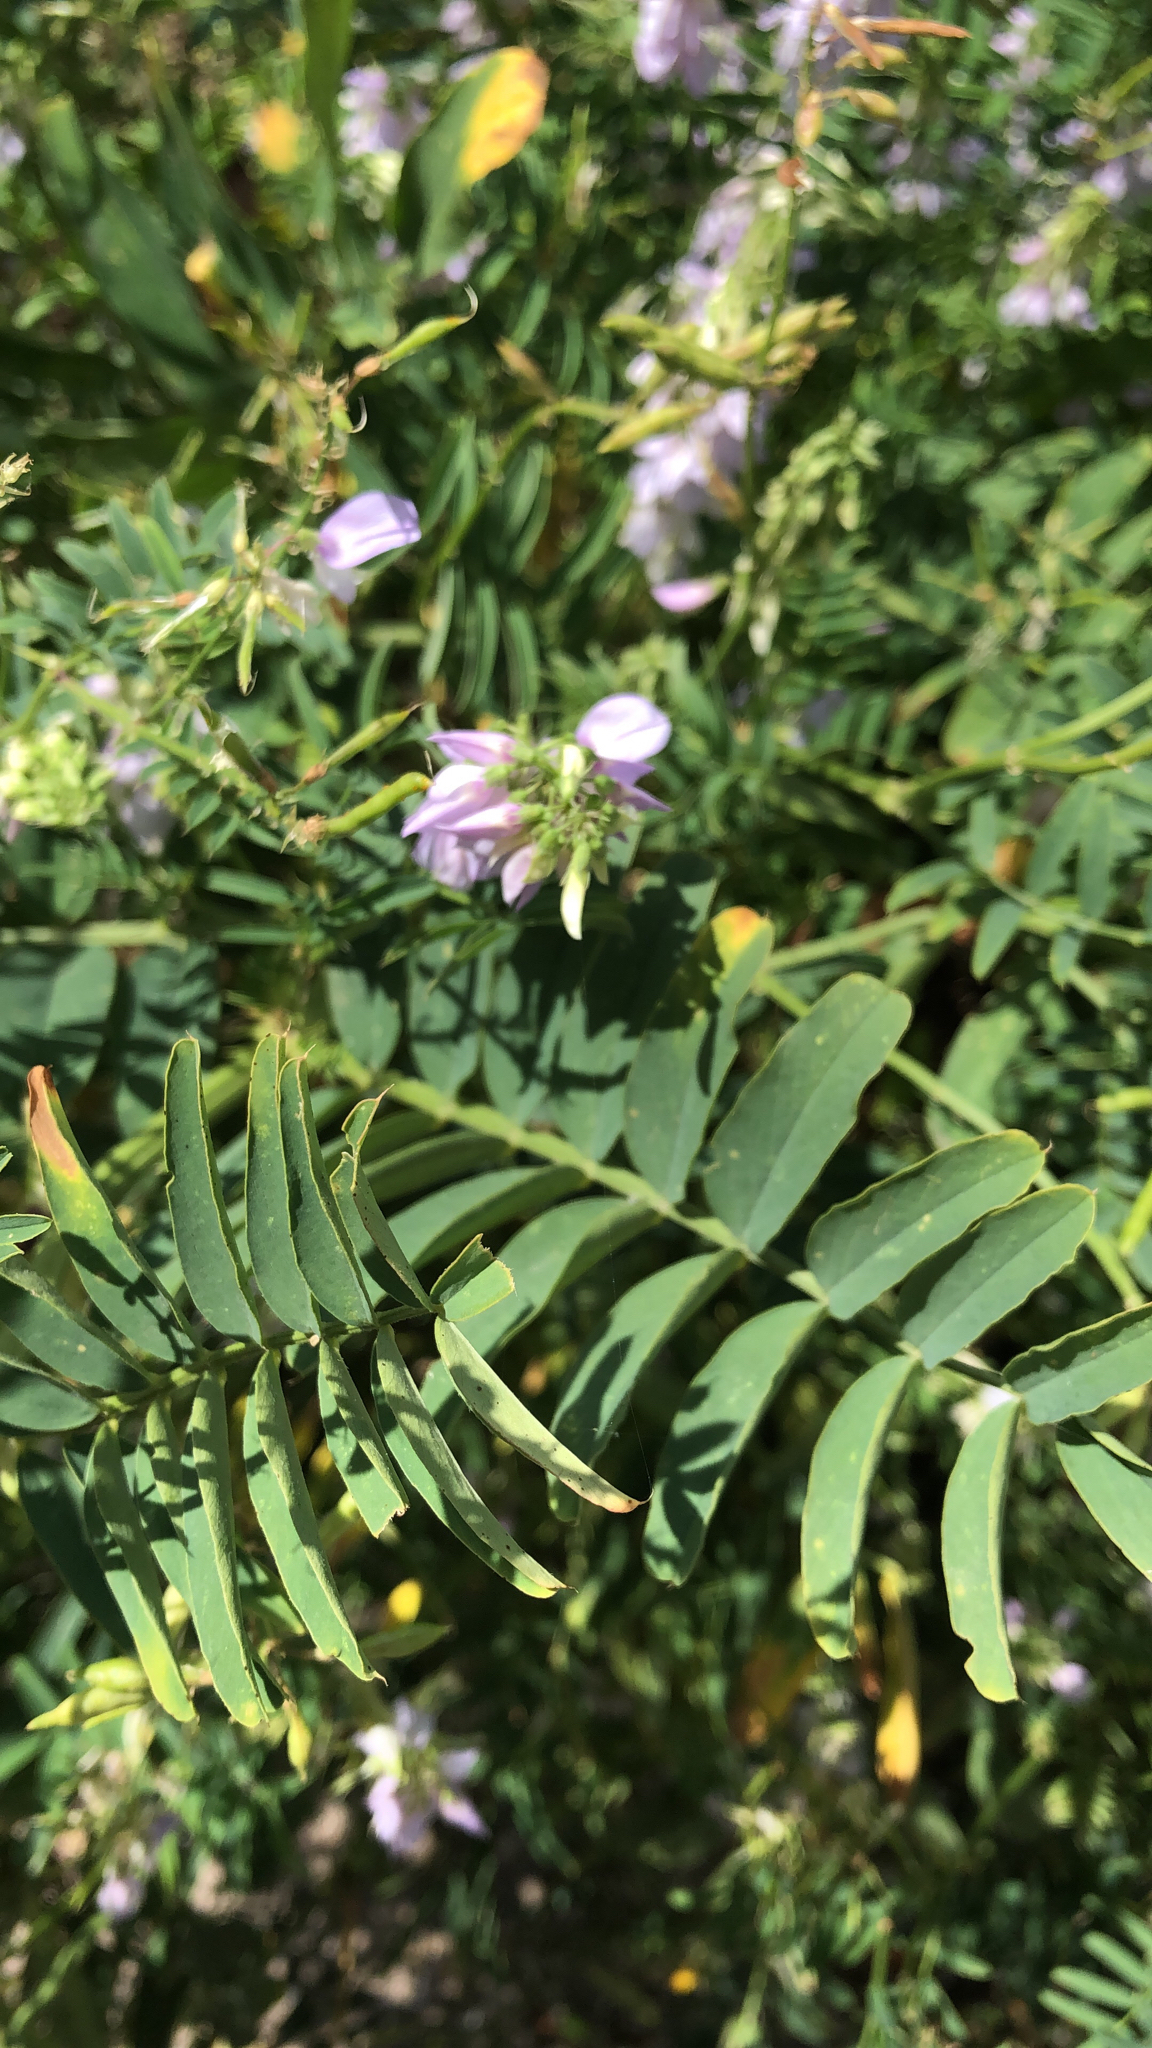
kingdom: Plantae
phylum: Tracheophyta
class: Magnoliopsida
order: Fabales
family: Fabaceae
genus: Galega
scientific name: Galega officinalis
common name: Goat's-rue
